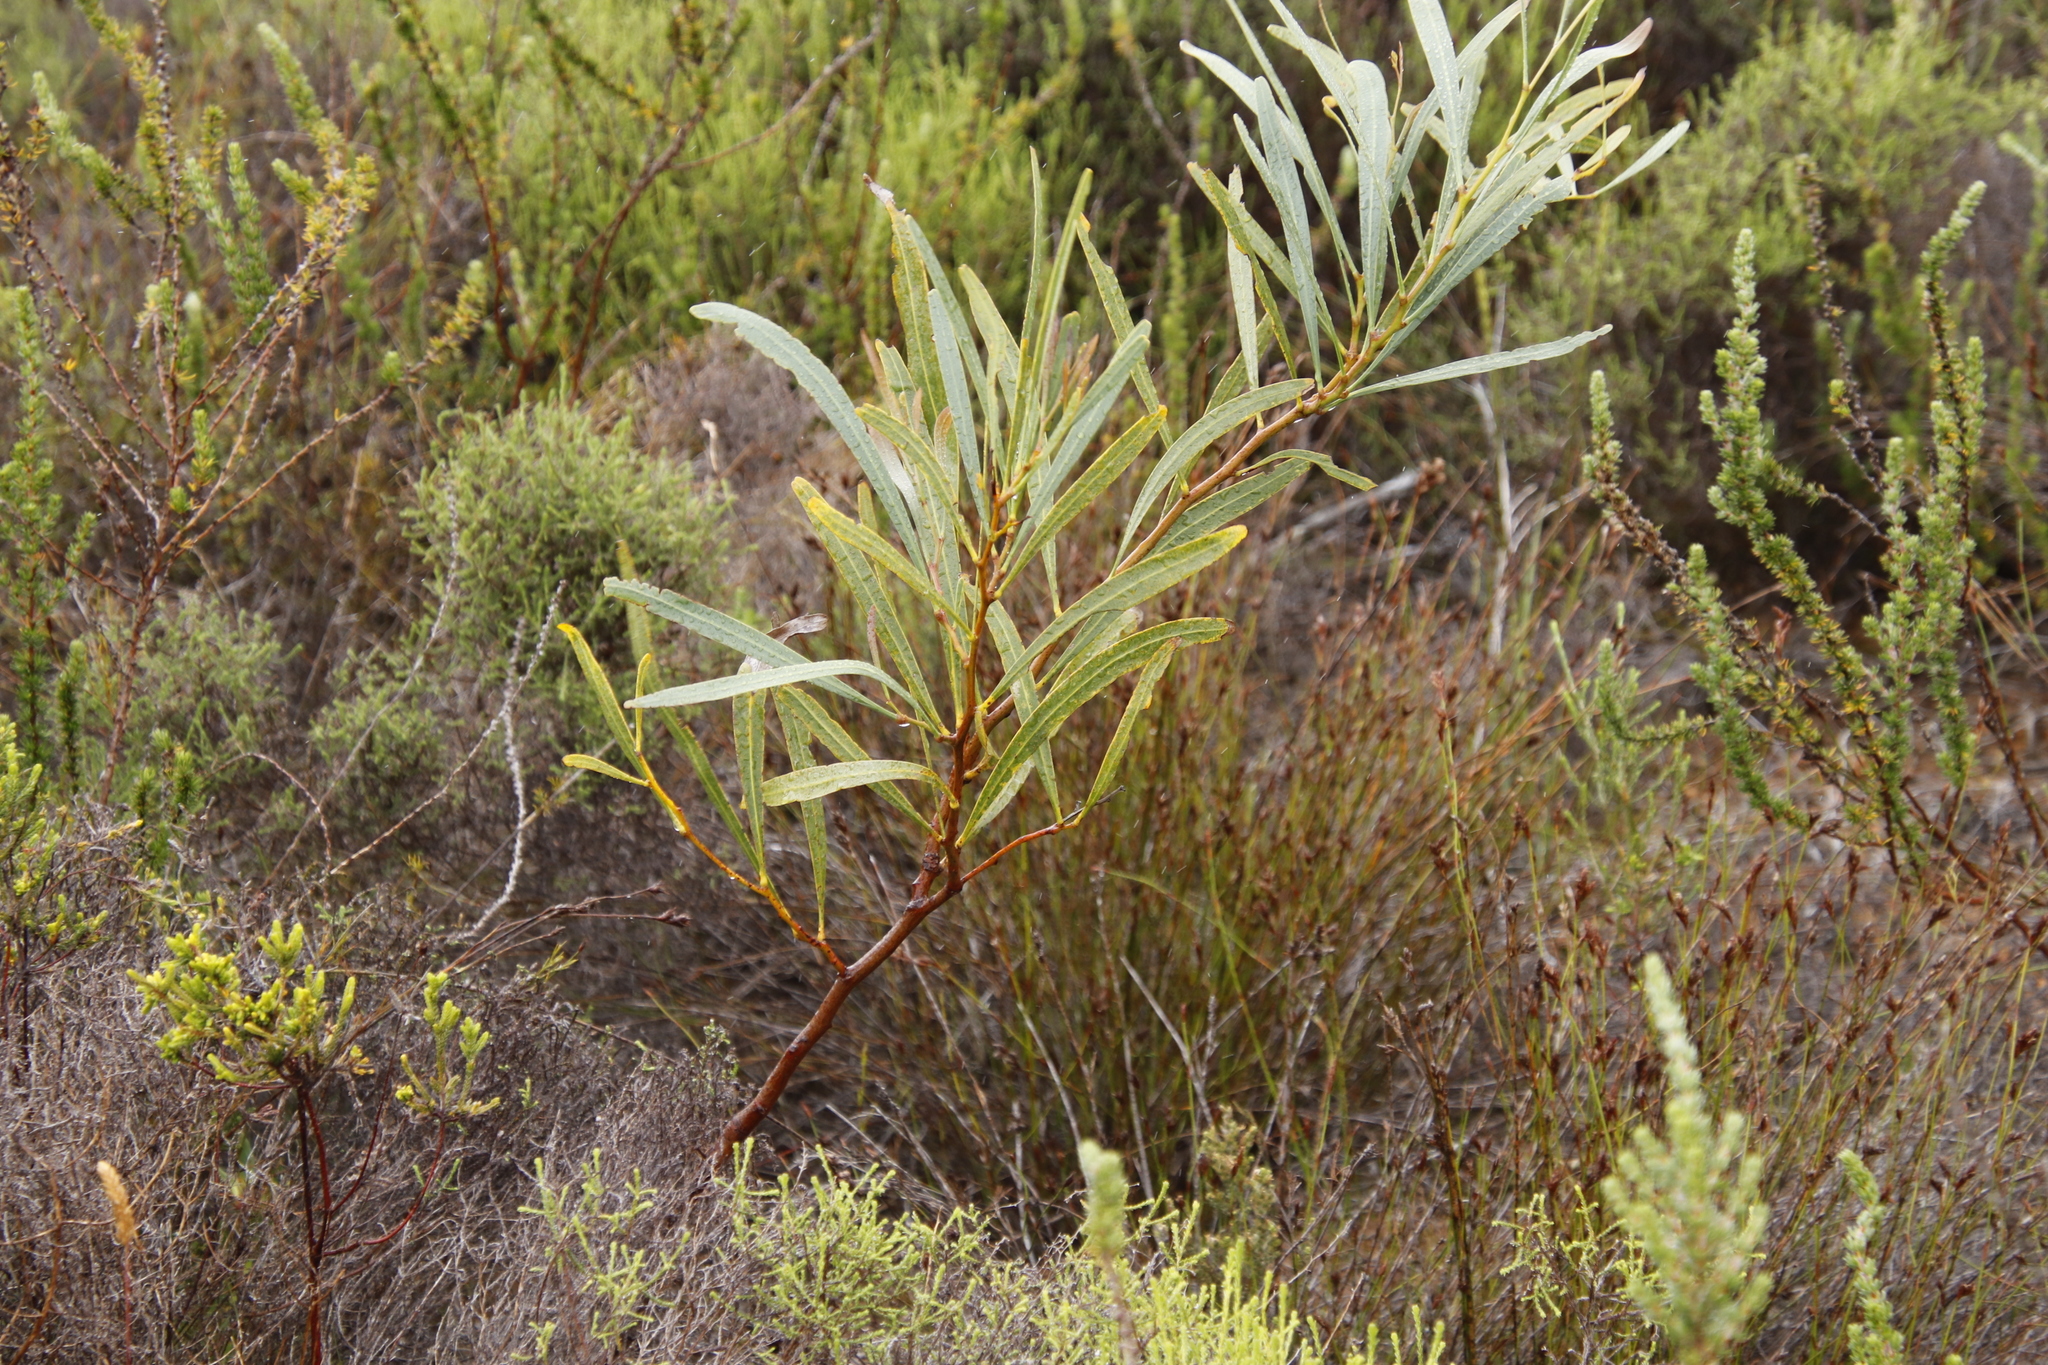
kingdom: Plantae
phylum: Tracheophyta
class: Magnoliopsida
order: Fabales
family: Fabaceae
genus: Acacia
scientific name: Acacia saligna
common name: Orange wattle
